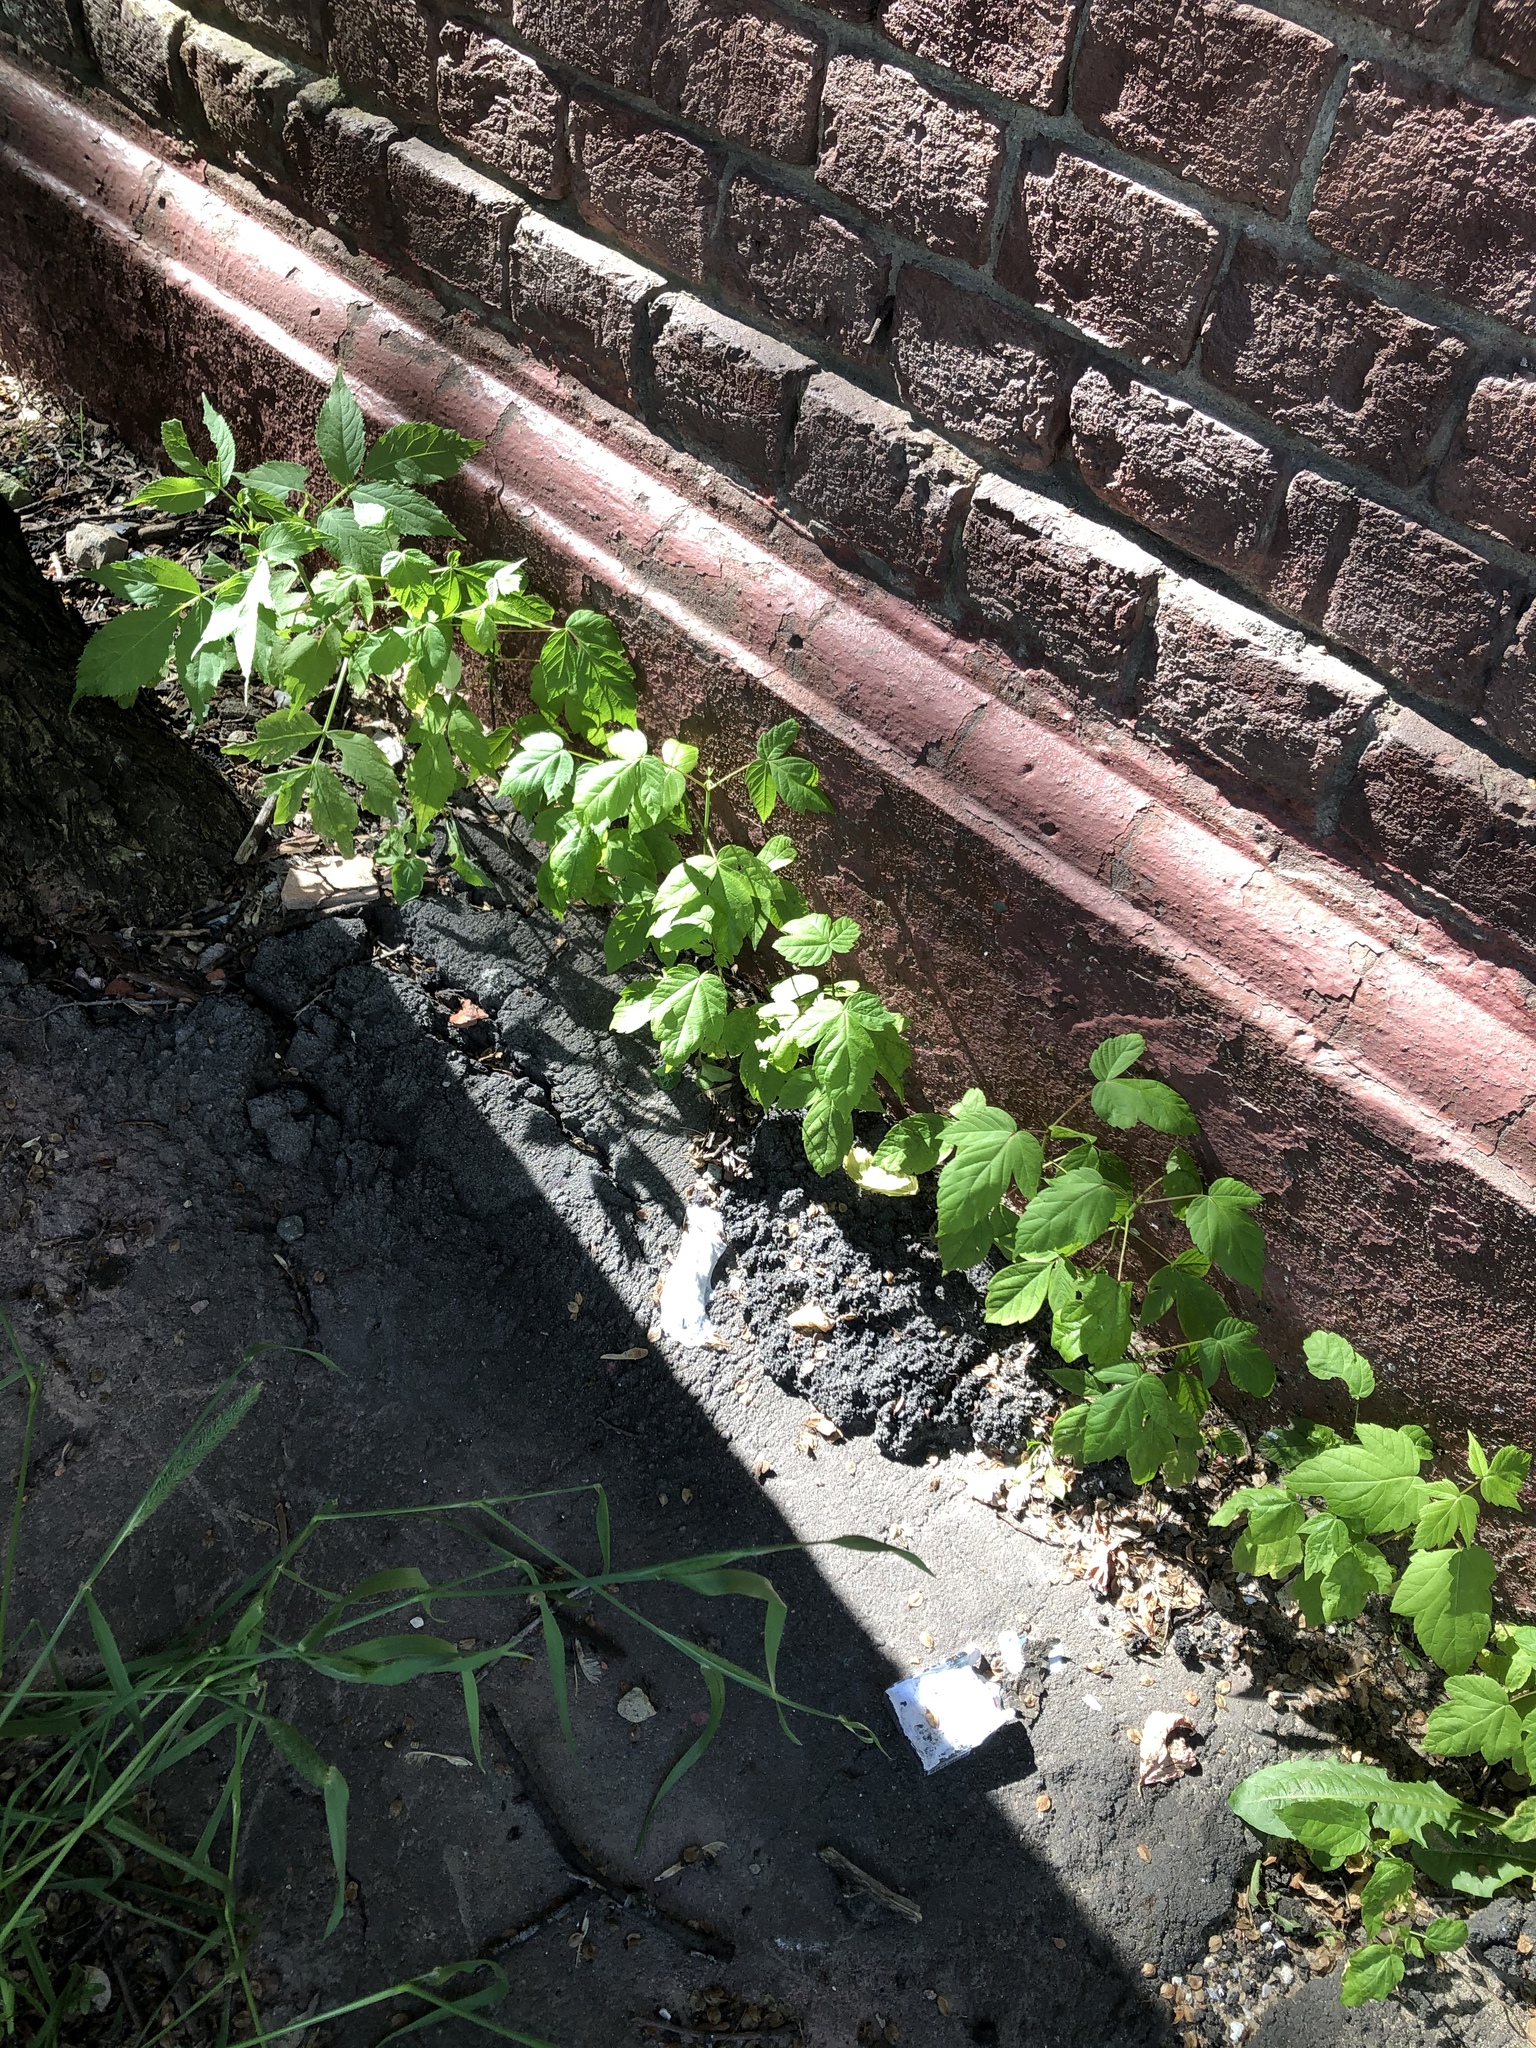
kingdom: Plantae
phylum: Tracheophyta
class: Magnoliopsida
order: Sapindales
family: Sapindaceae
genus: Acer
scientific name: Acer negundo
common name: Ashleaf maple
